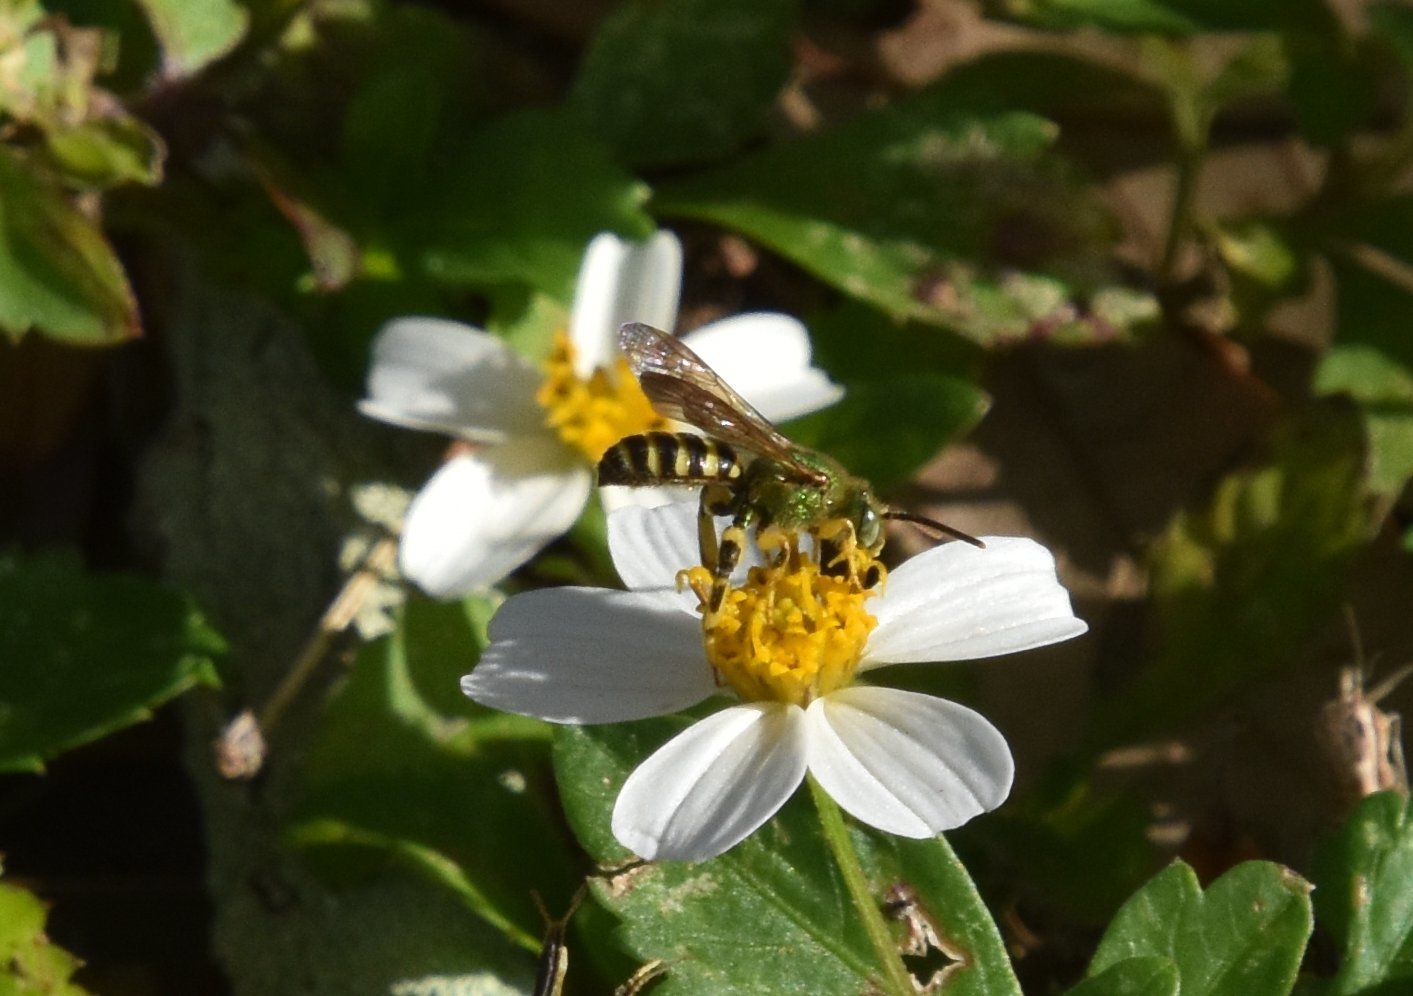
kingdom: Animalia
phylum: Arthropoda
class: Insecta
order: Hymenoptera
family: Halictidae
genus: Agapostemon
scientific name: Agapostemon splendens
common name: Brown-winged striped sweat bee
